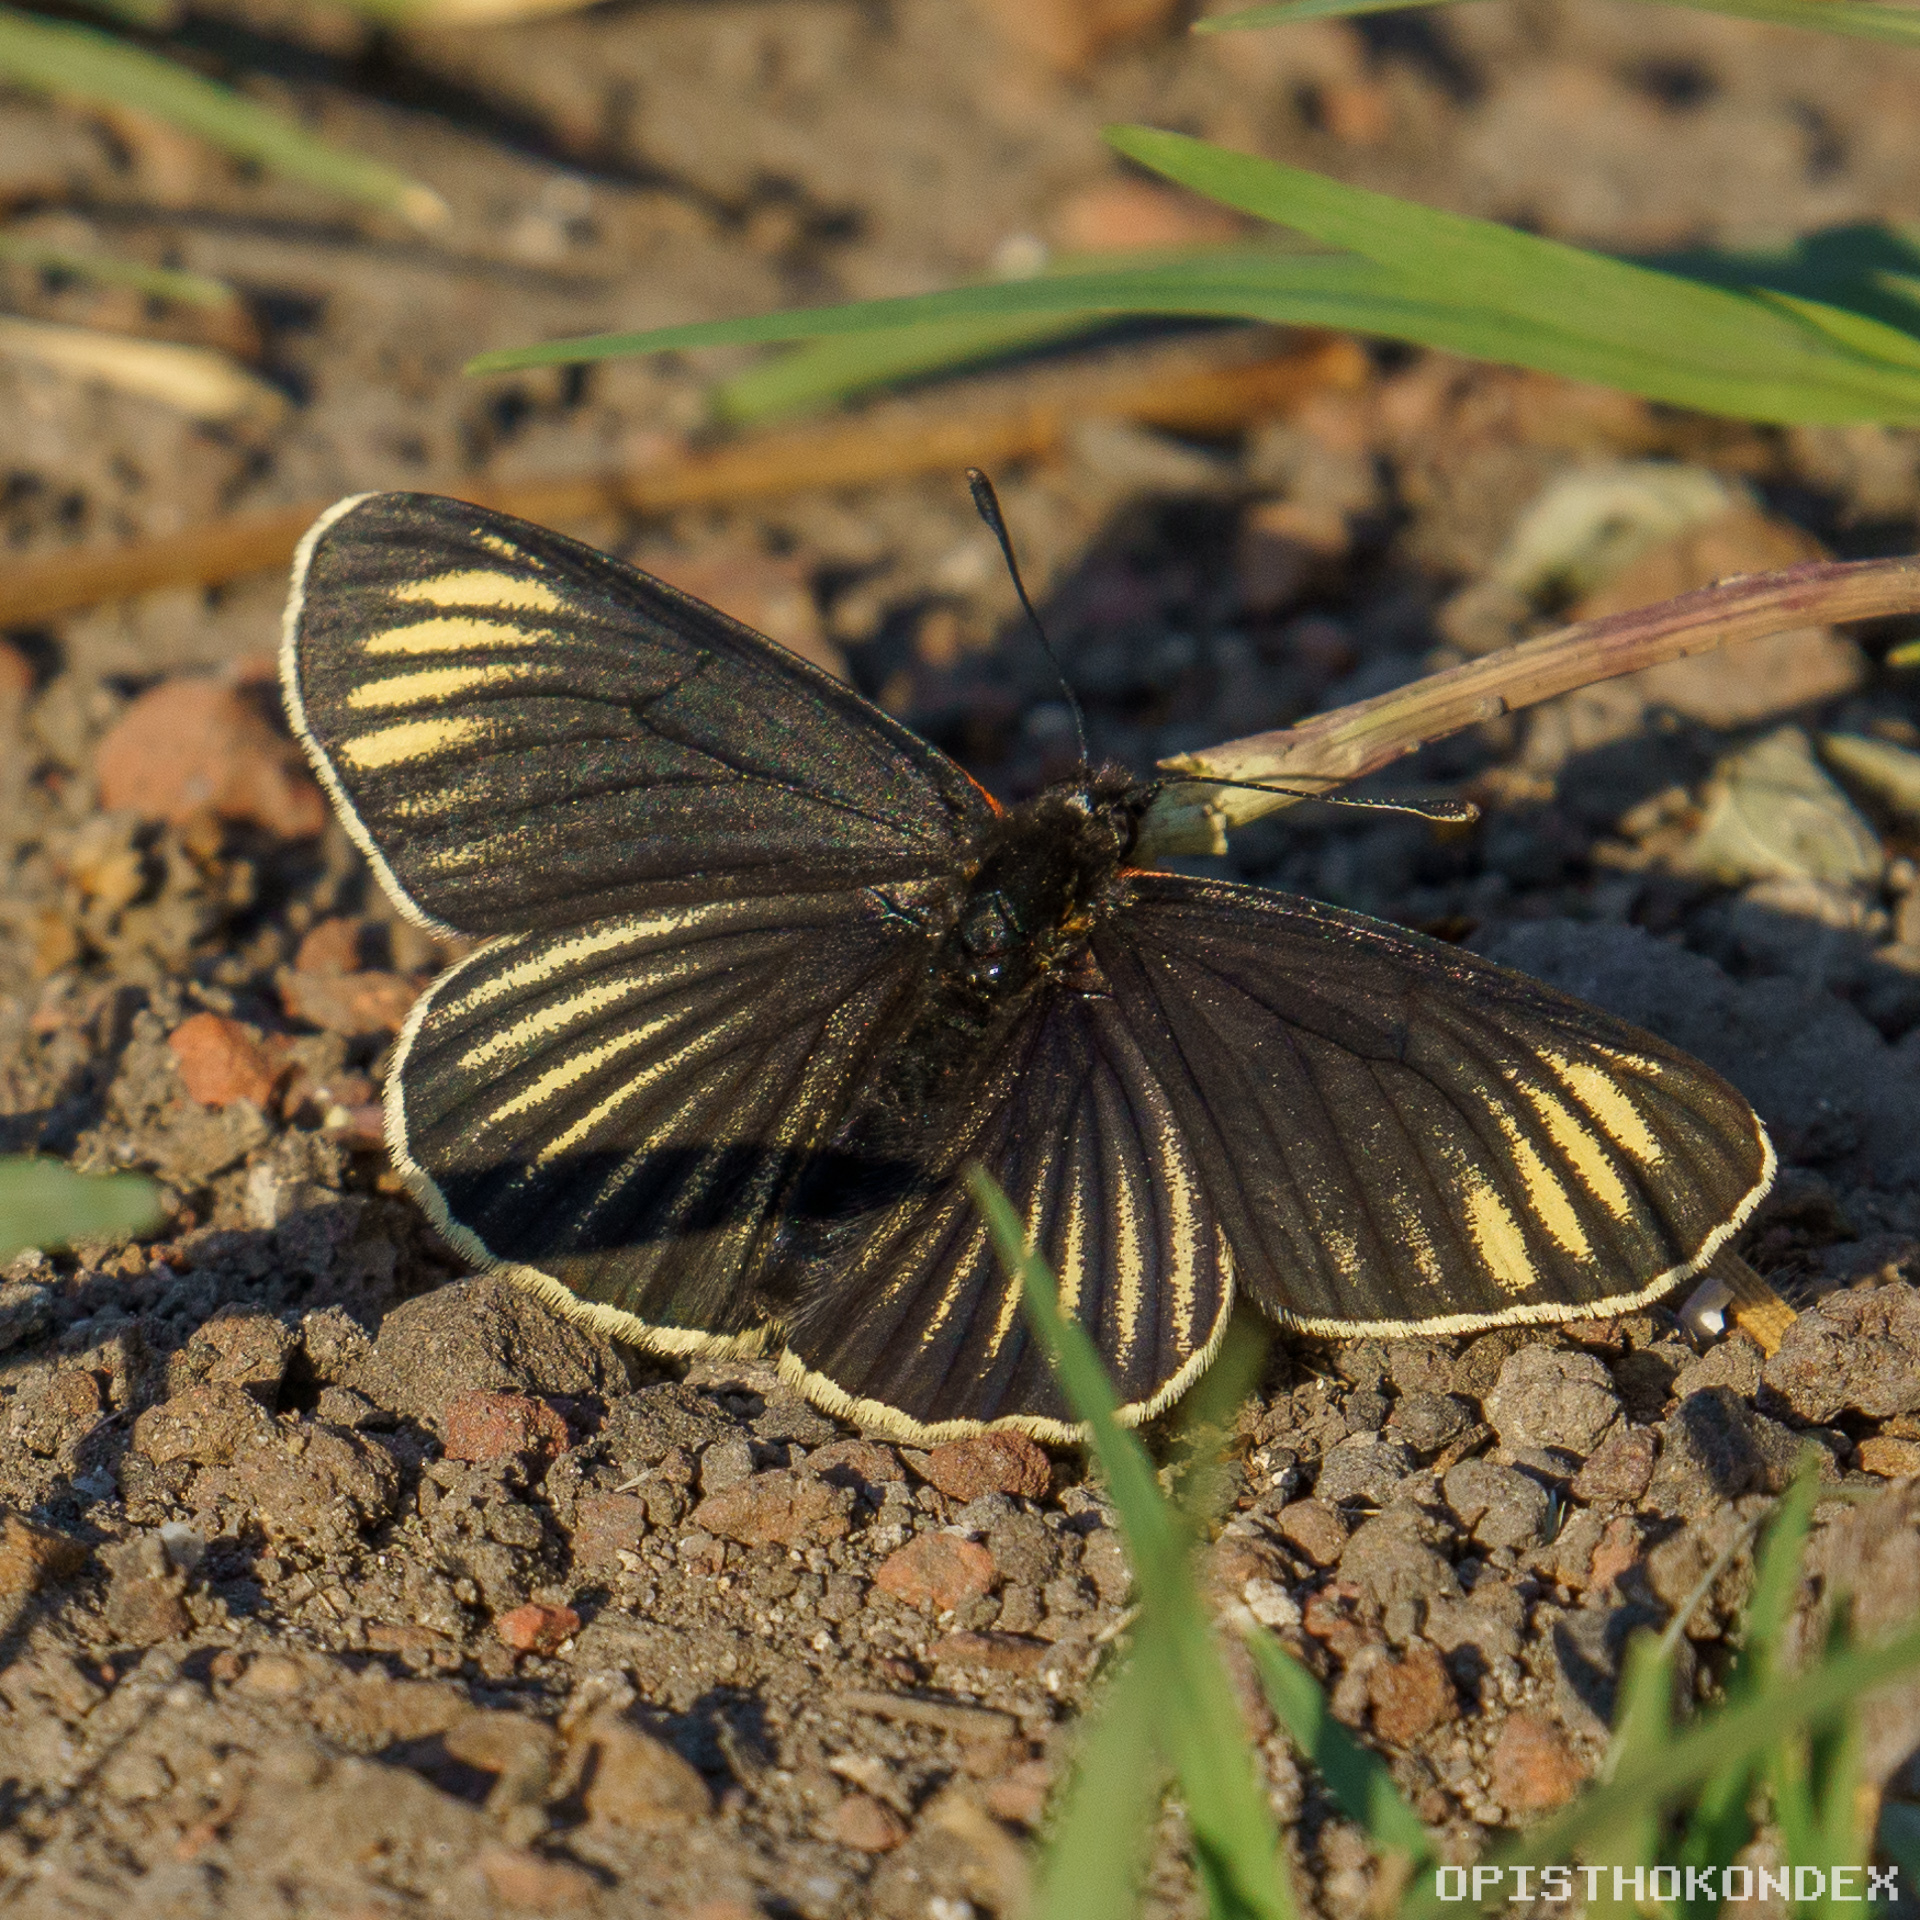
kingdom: Animalia
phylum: Arthropoda
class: Insecta
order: Lepidoptera
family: Nymphalidae
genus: Chlosyne
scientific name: Chlosyne ehrenbergii
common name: White-rayed patch
